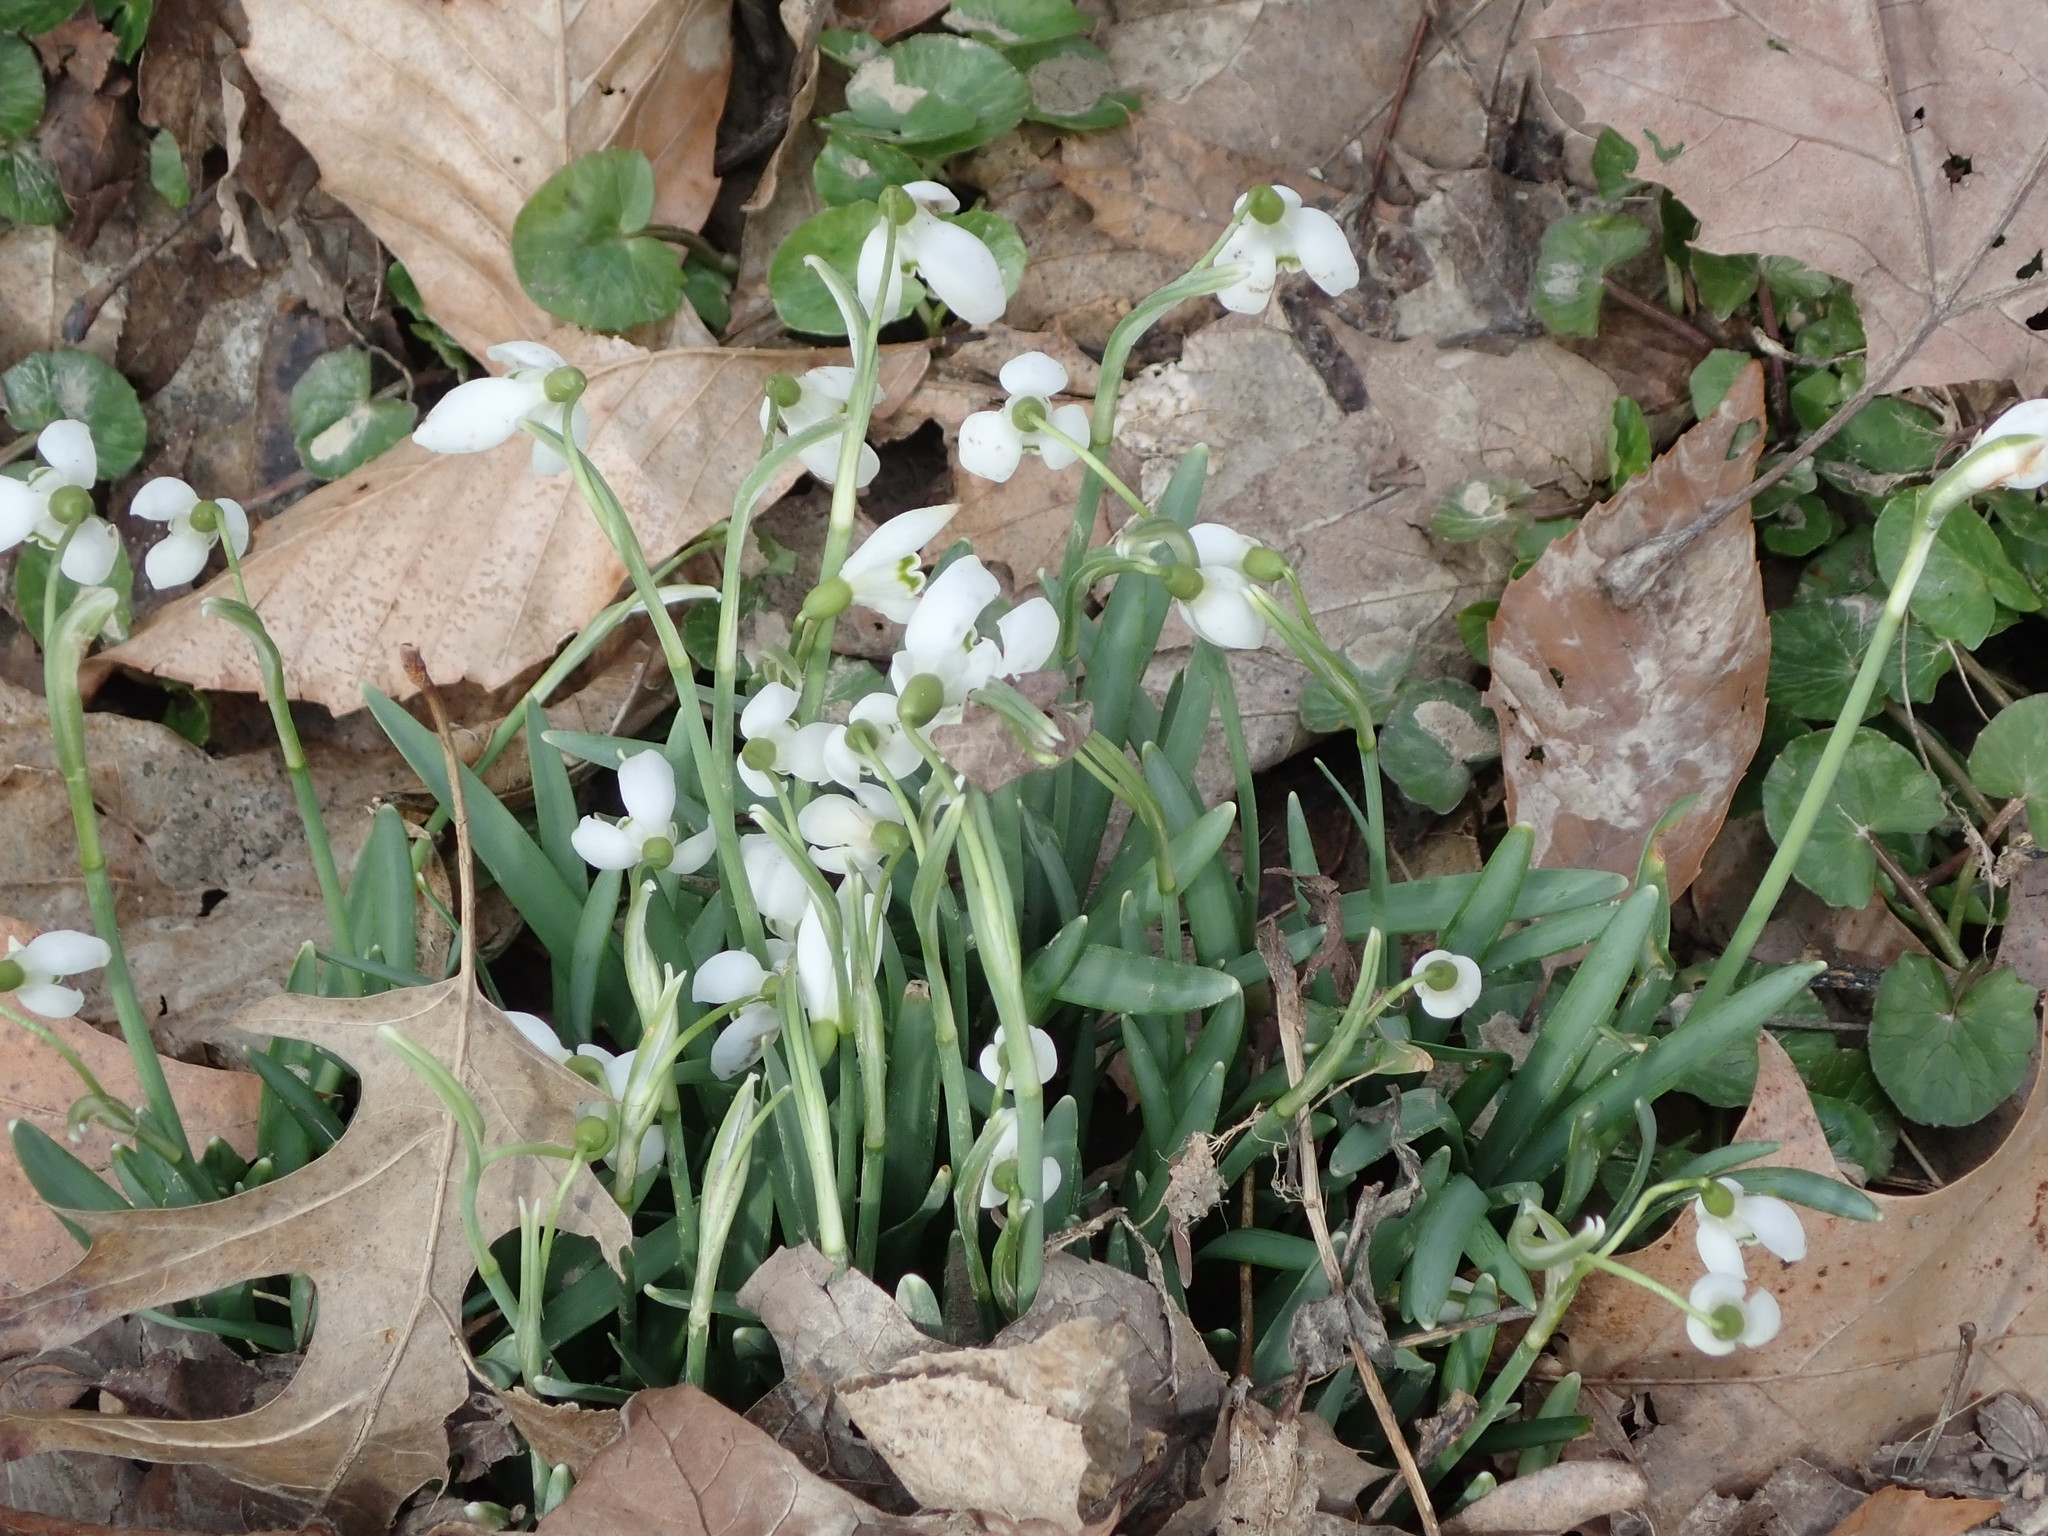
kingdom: Plantae
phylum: Tracheophyta
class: Liliopsida
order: Asparagales
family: Amaryllidaceae
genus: Galanthus
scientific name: Galanthus nivalis
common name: Snowdrop
